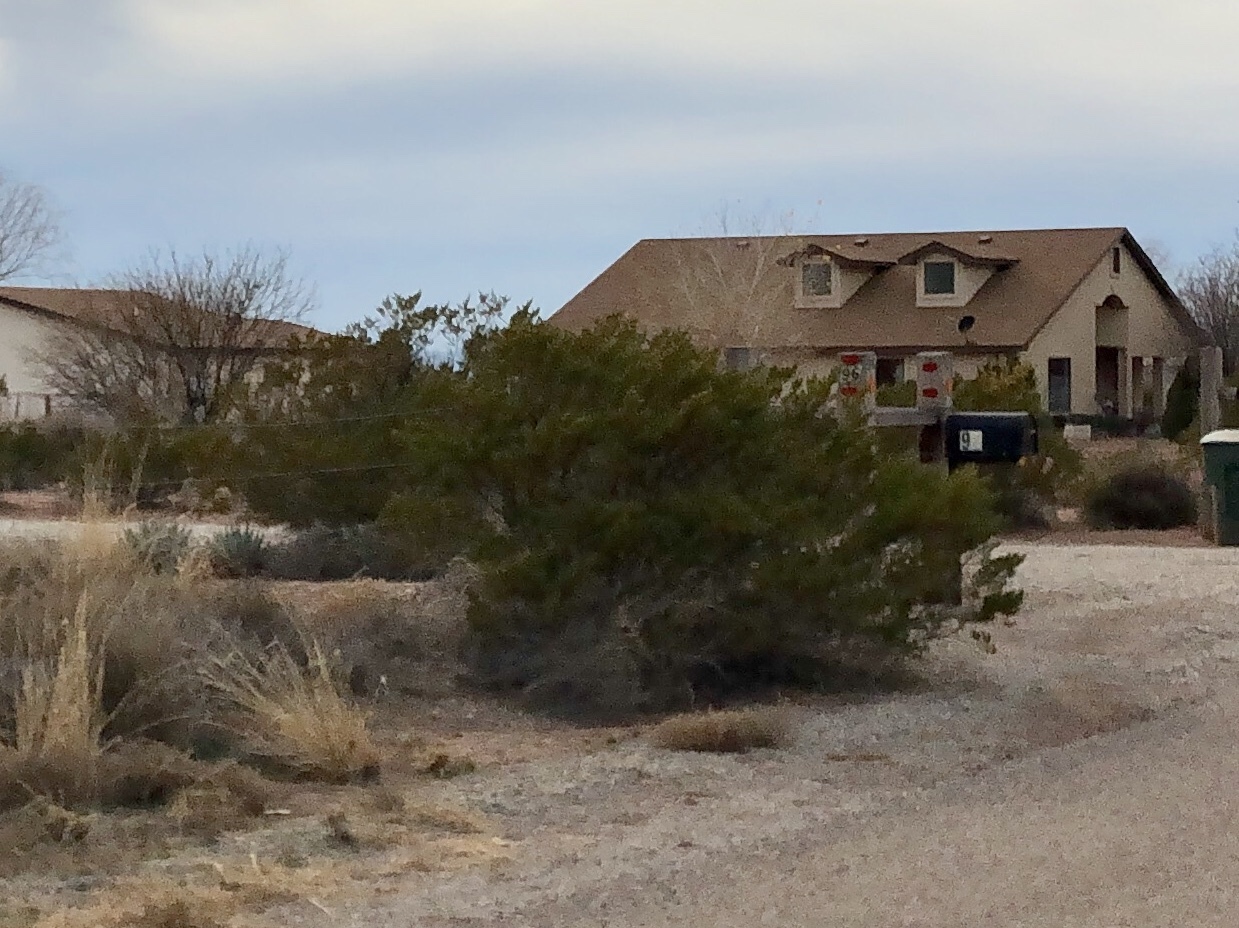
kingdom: Plantae
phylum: Tracheophyta
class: Magnoliopsida
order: Zygophyllales
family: Zygophyllaceae
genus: Larrea
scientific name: Larrea tridentata
